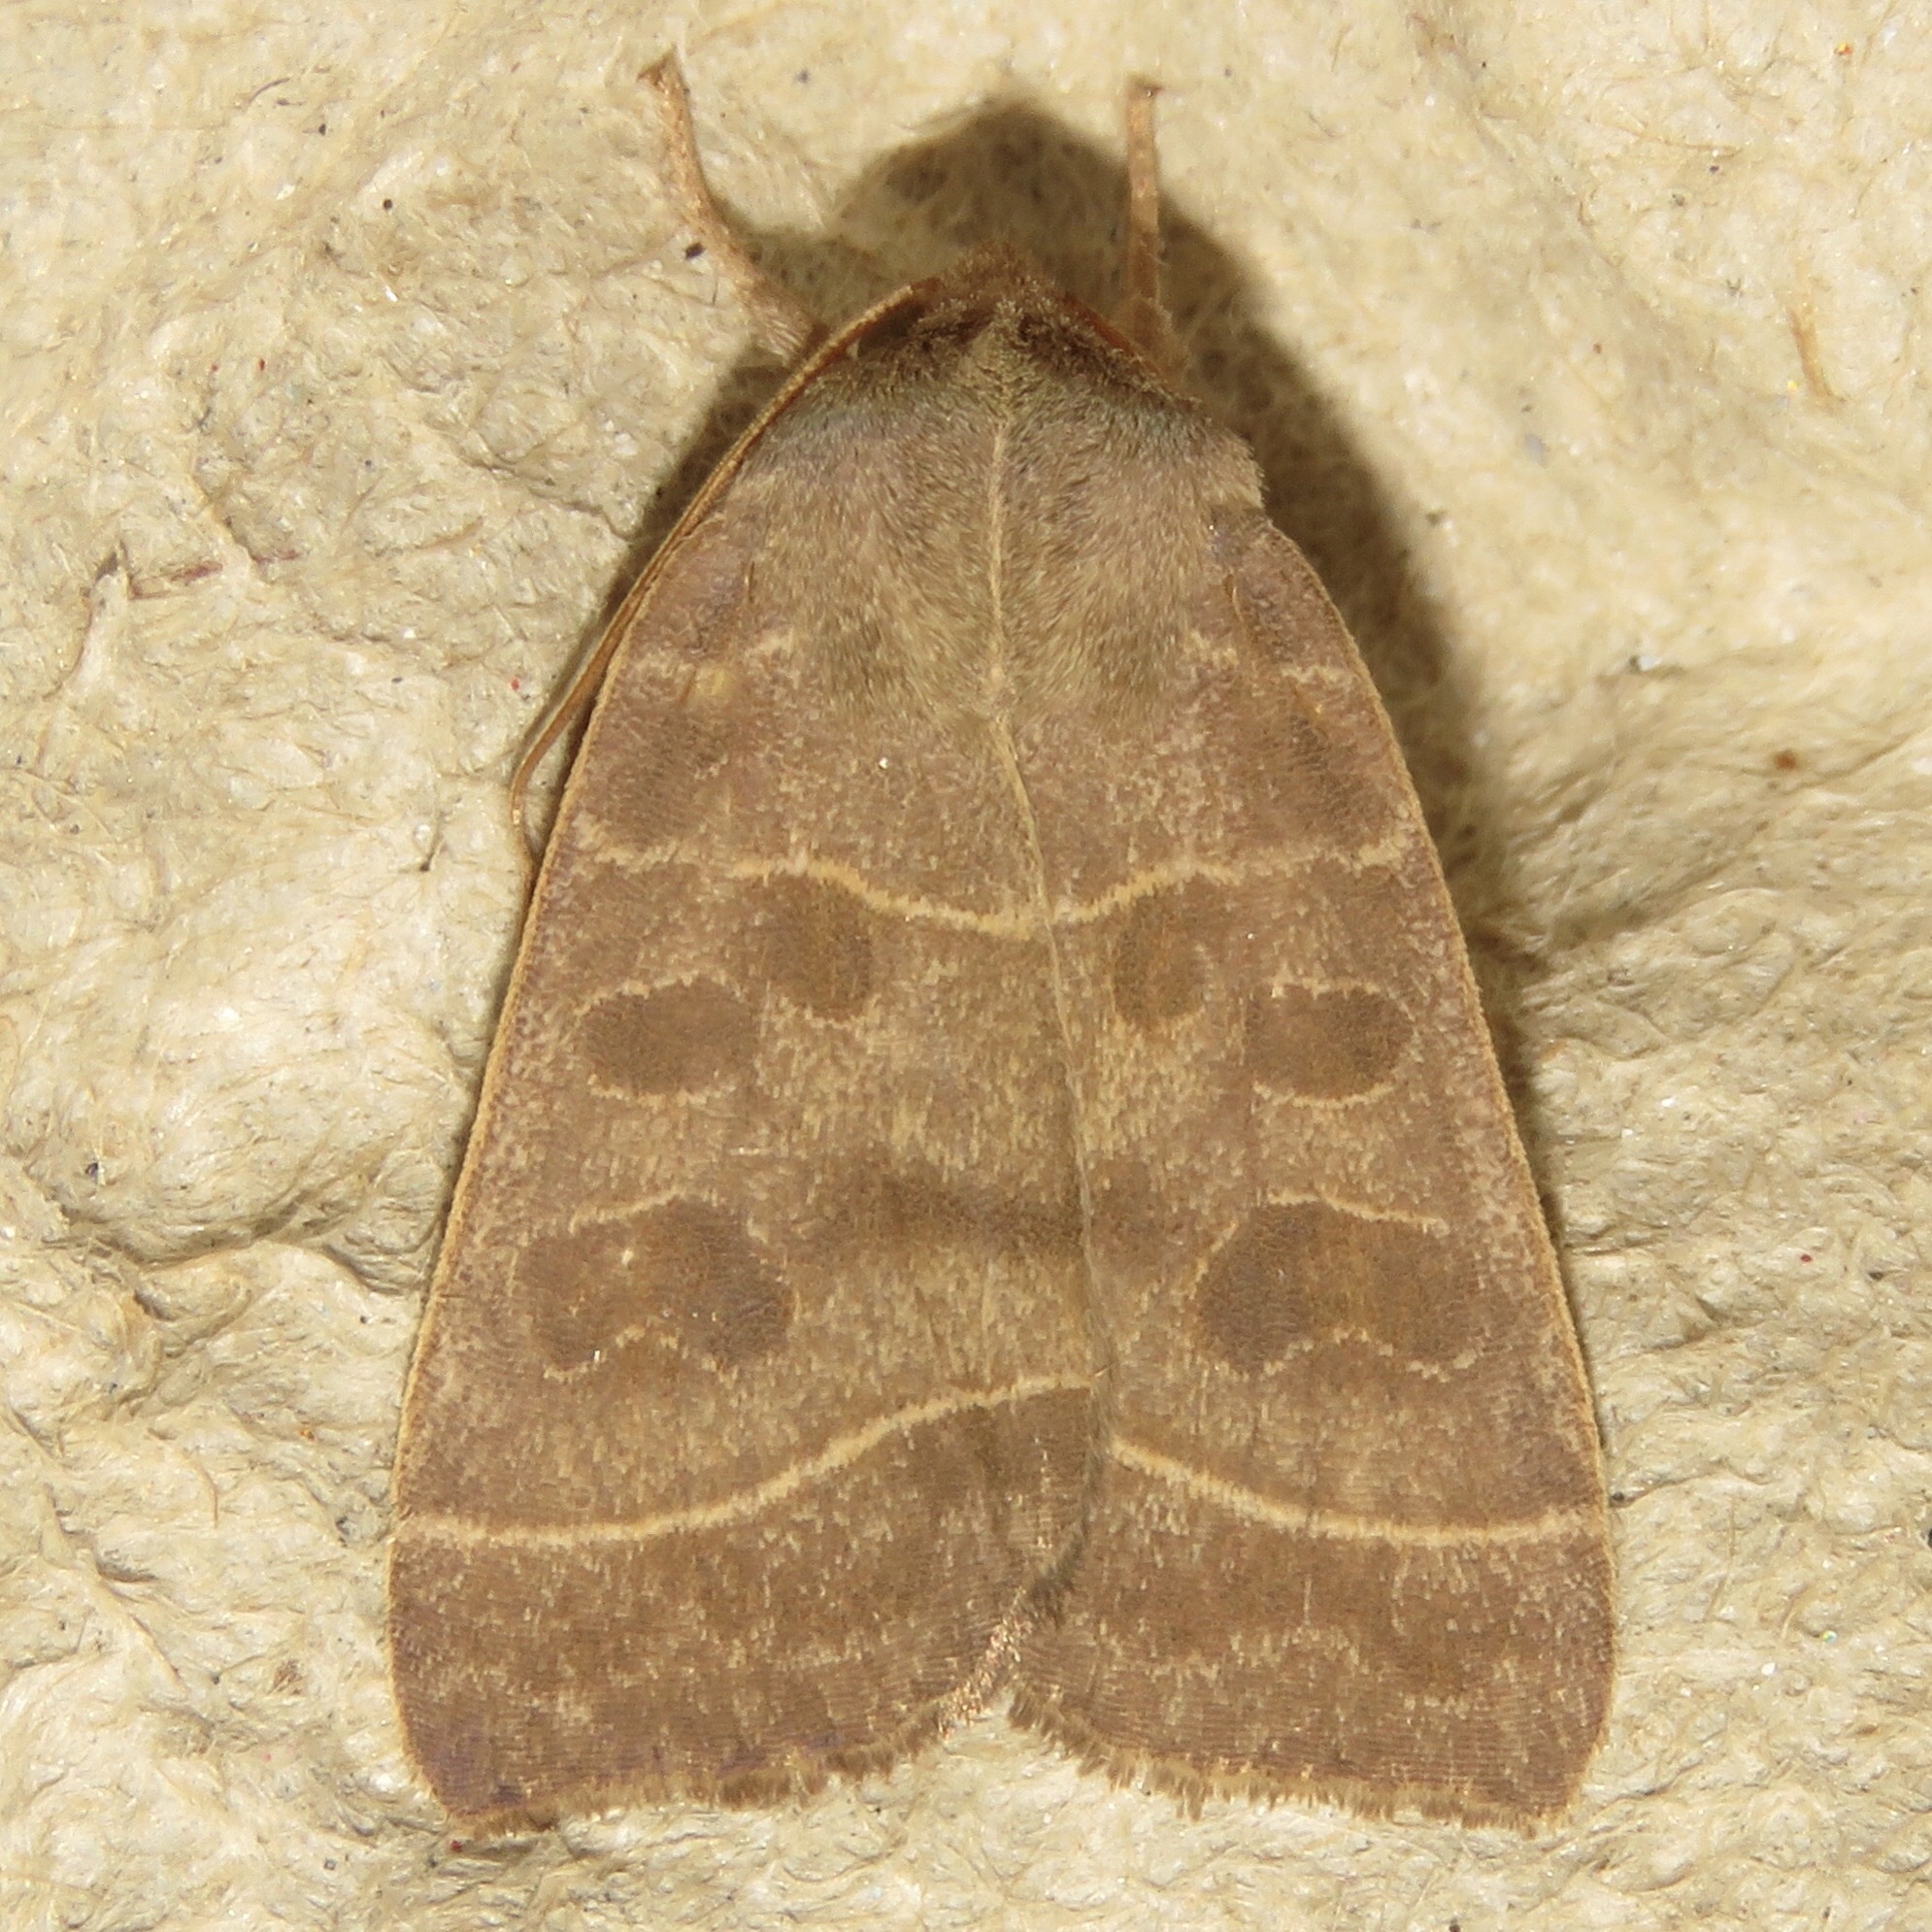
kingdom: Animalia
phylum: Arthropoda
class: Insecta
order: Lepidoptera
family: Noctuidae
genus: Ipimorpha
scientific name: Ipimorpha pleonectusa
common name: Even-lined sallow
